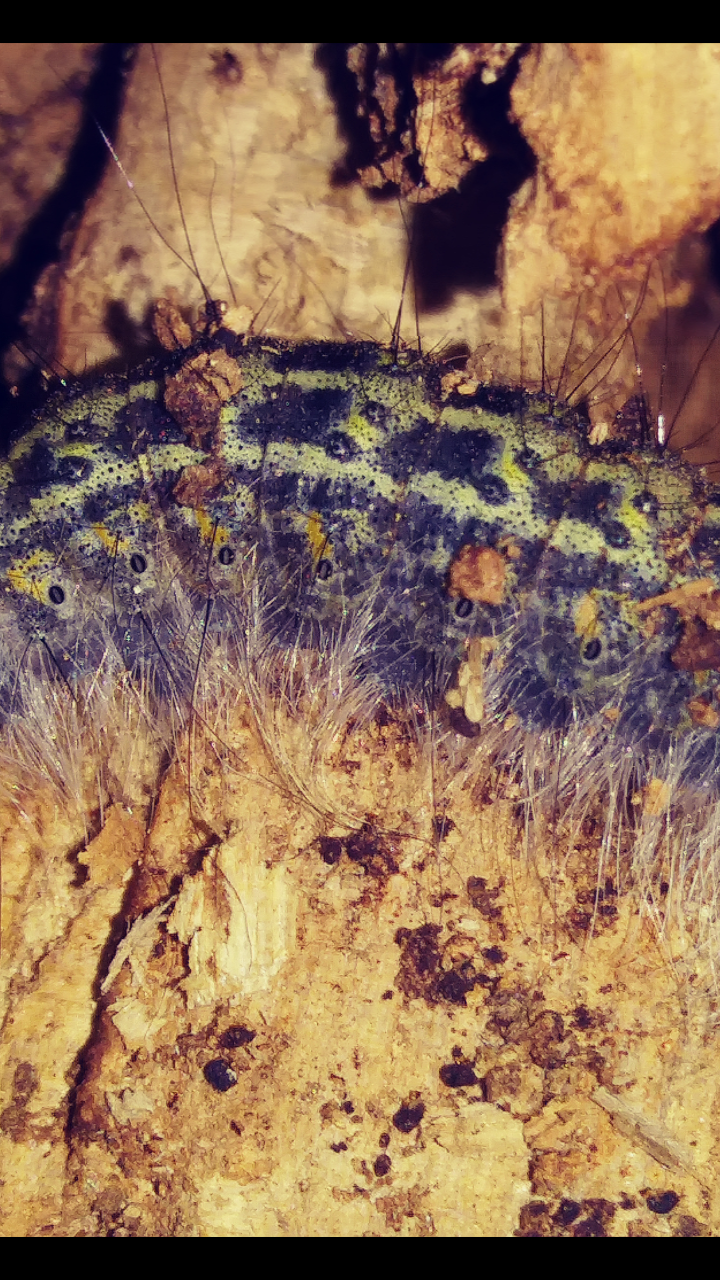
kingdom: Animalia
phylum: Arthropoda
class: Insecta
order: Lepidoptera
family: Noctuidae
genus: Acronicta
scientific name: Acronicta lobeliae
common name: Greater oak dagger
